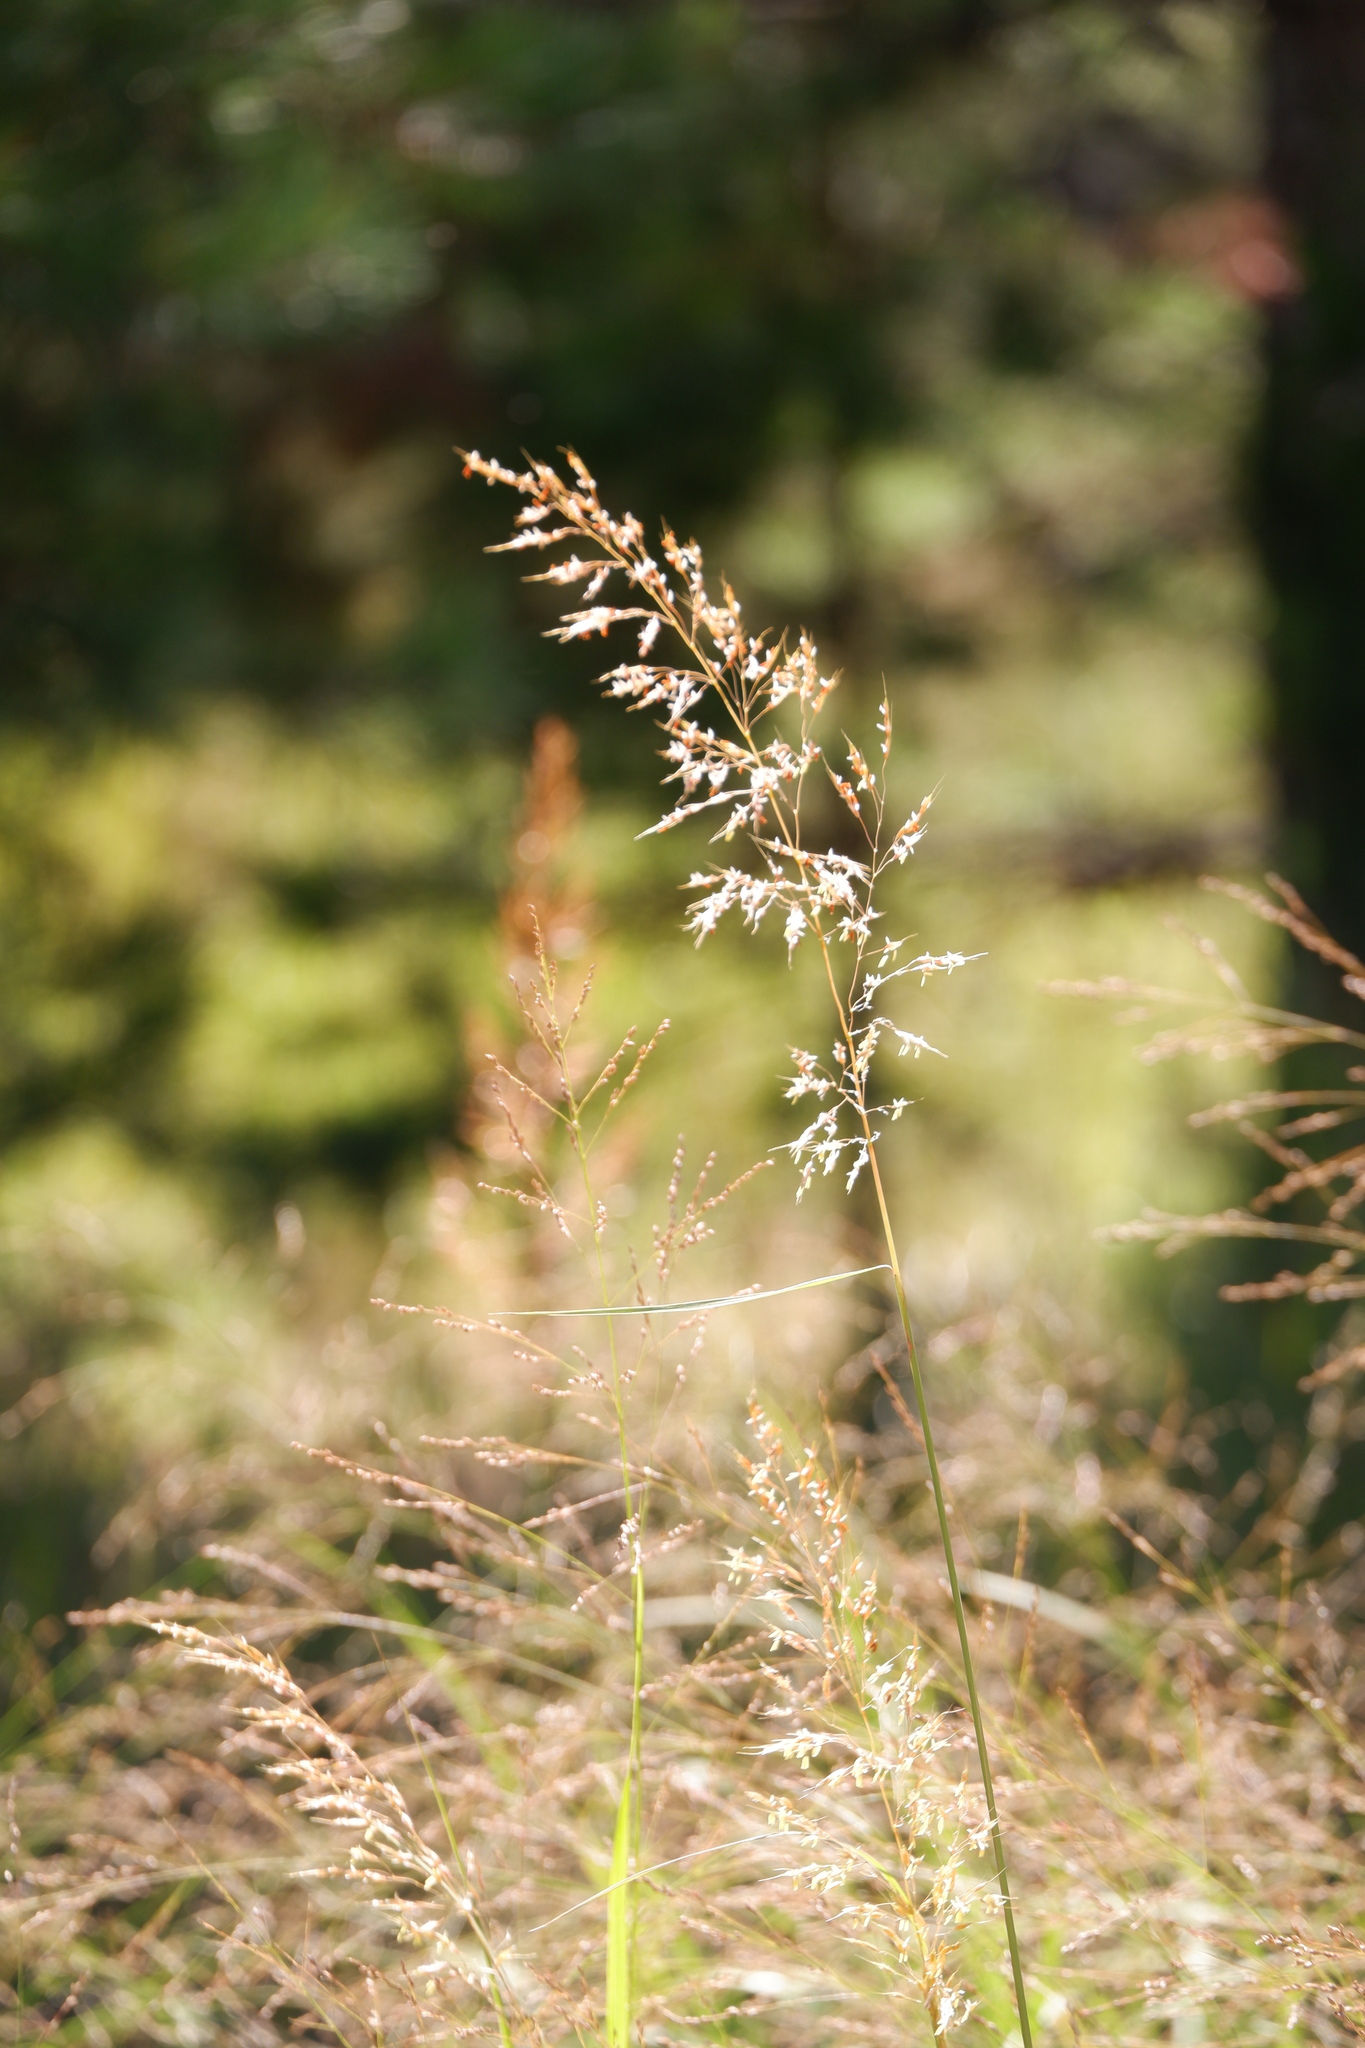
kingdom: Plantae
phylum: Tracheophyta
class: Liliopsida
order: Poales
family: Poaceae
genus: Sorghastrum
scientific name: Sorghastrum nutans
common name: Indian grass
